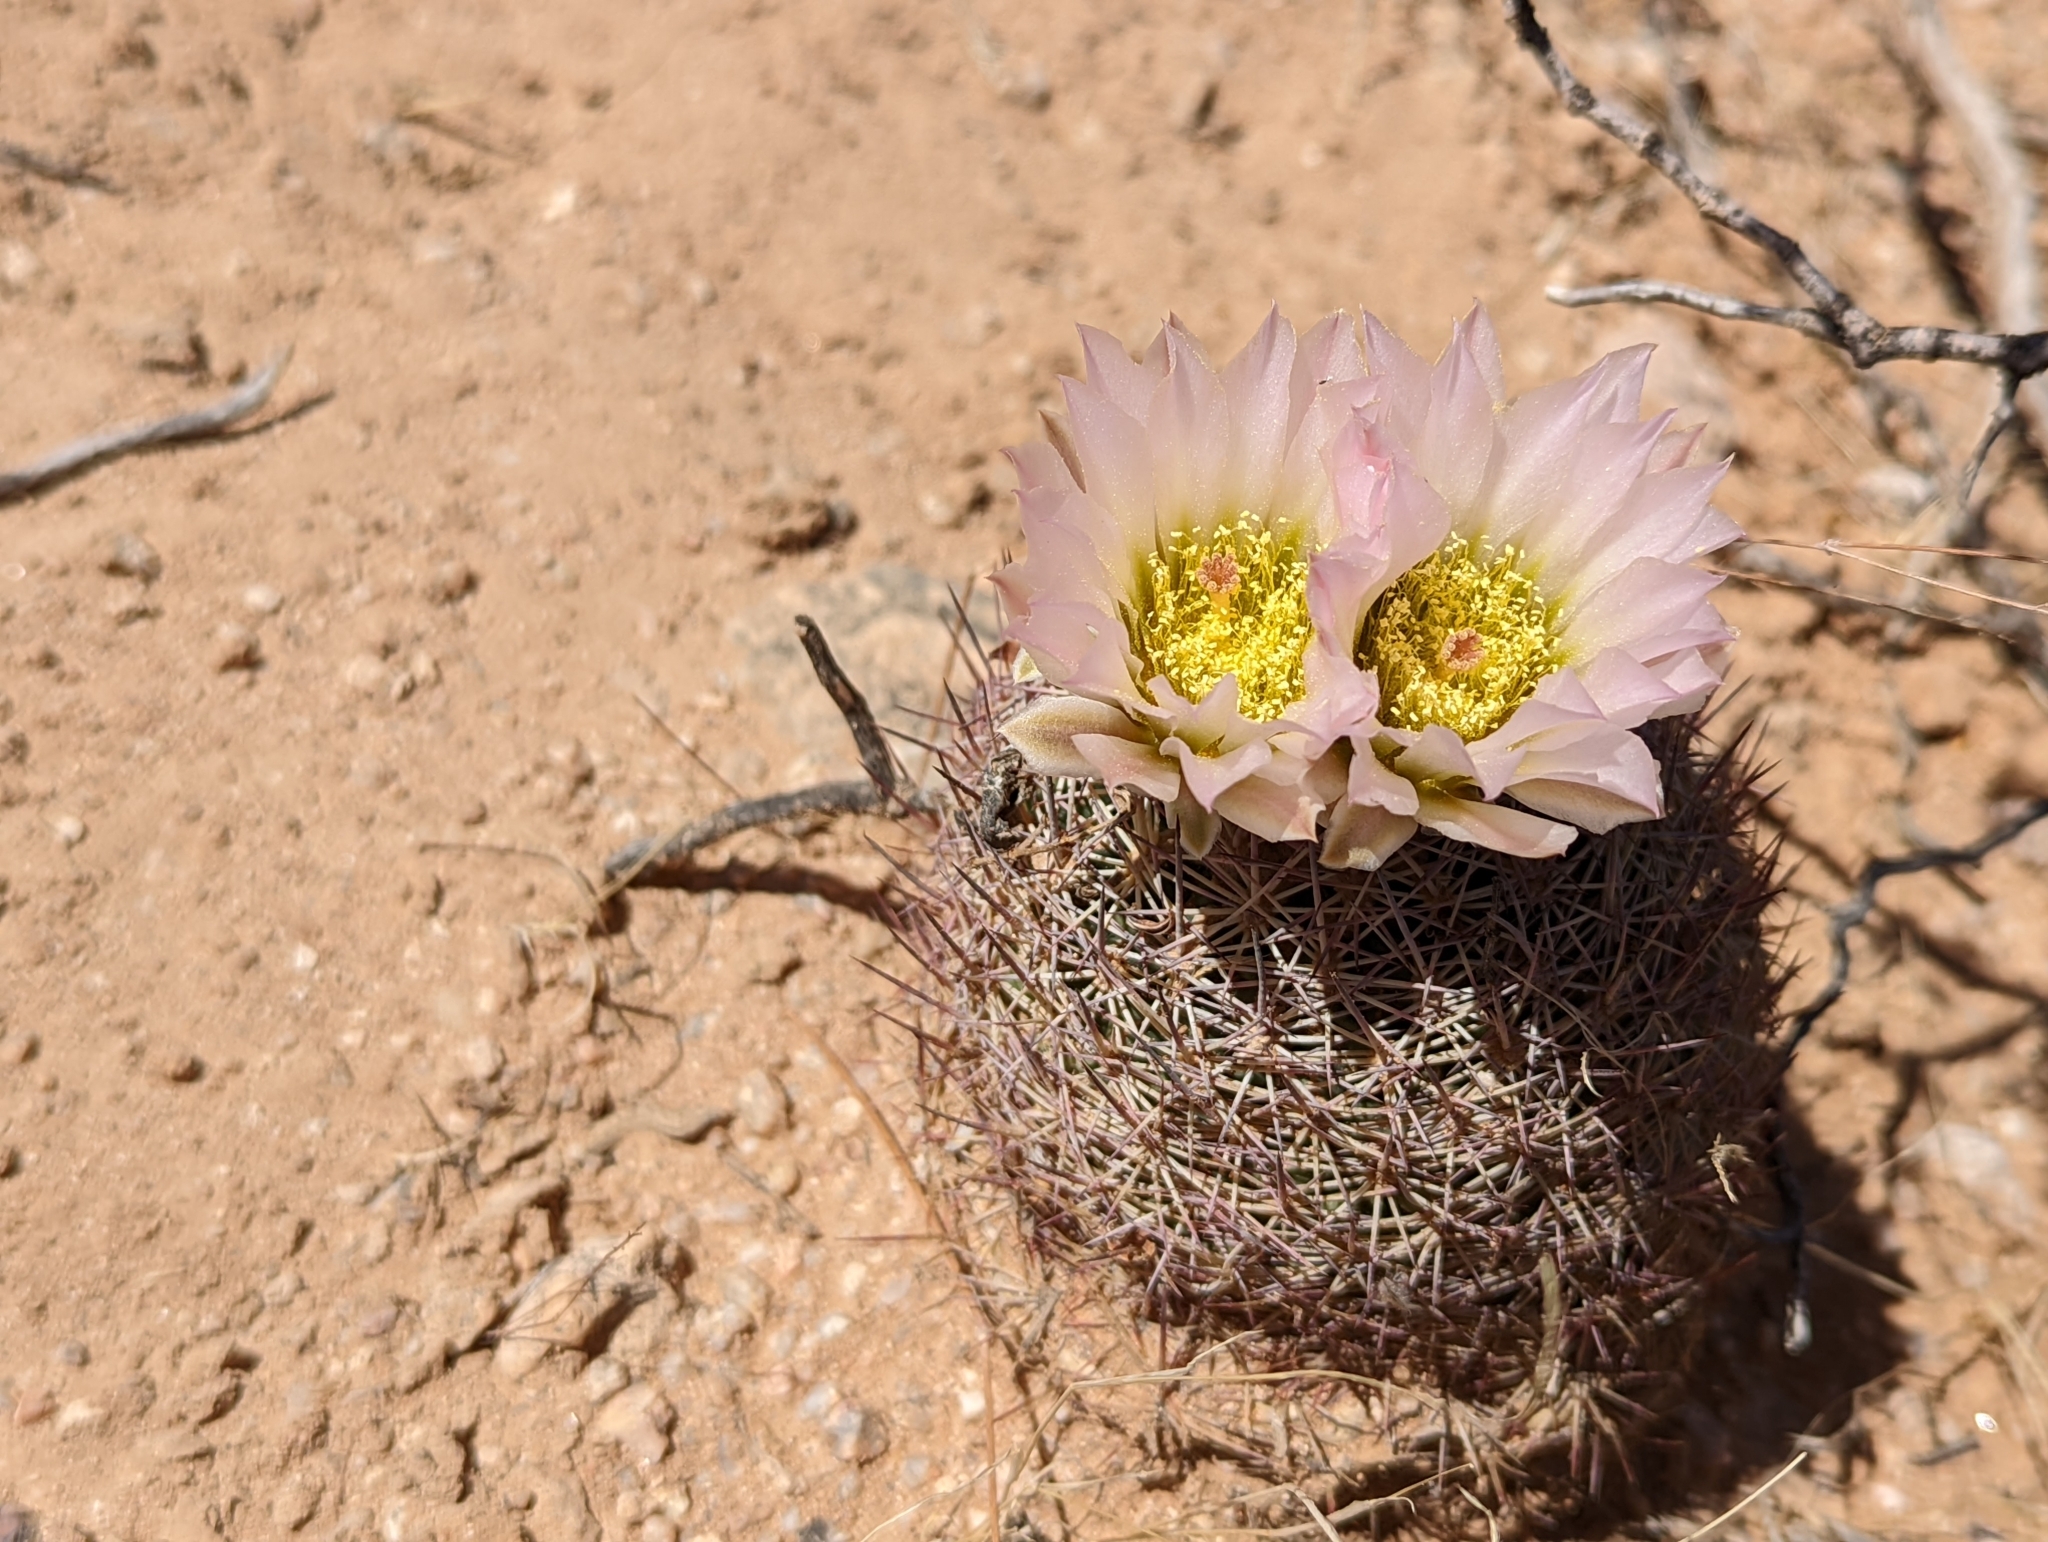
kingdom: Plantae
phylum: Tracheophyta
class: Magnoliopsida
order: Caryophyllales
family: Cactaceae
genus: Sclerocactus
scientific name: Sclerocactus johnsonii
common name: Eight-spine fishhook cactus
